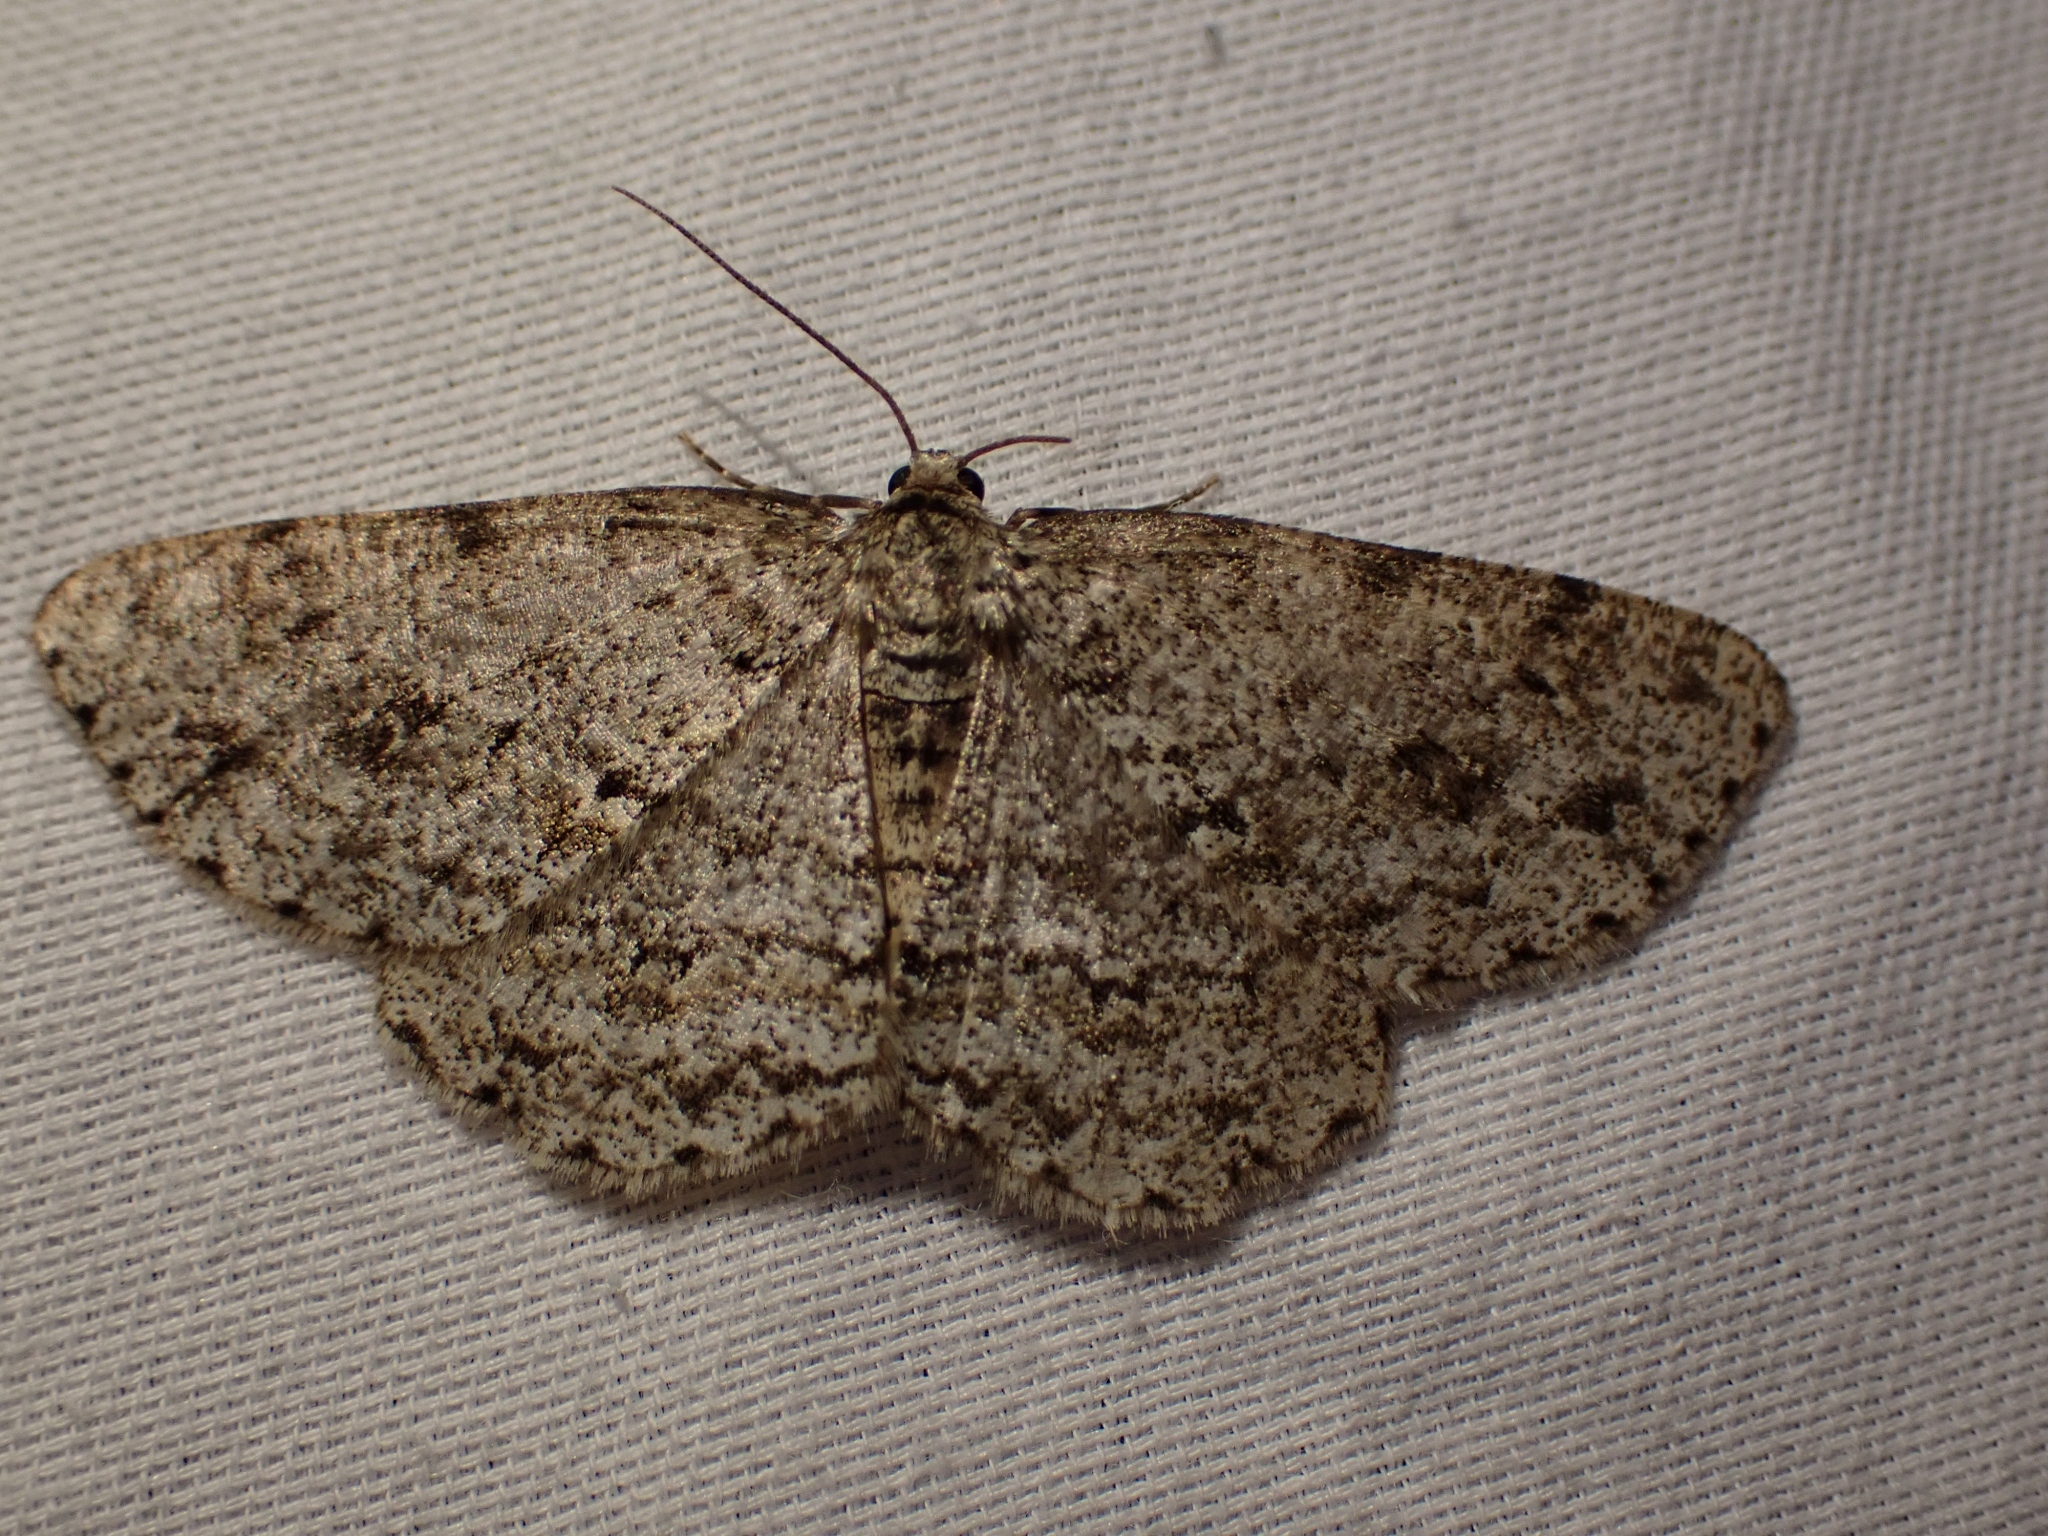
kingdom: Animalia
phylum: Arthropoda
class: Insecta
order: Lepidoptera
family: Geometridae
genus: Ectropis
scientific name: Ectropis crepuscularia
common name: Engrailed
